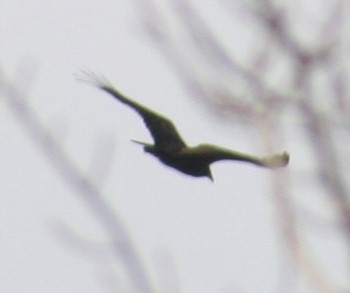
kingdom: Animalia
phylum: Chordata
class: Aves
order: Accipitriformes
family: Cathartidae
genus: Cathartes
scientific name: Cathartes aura
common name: Turkey vulture
